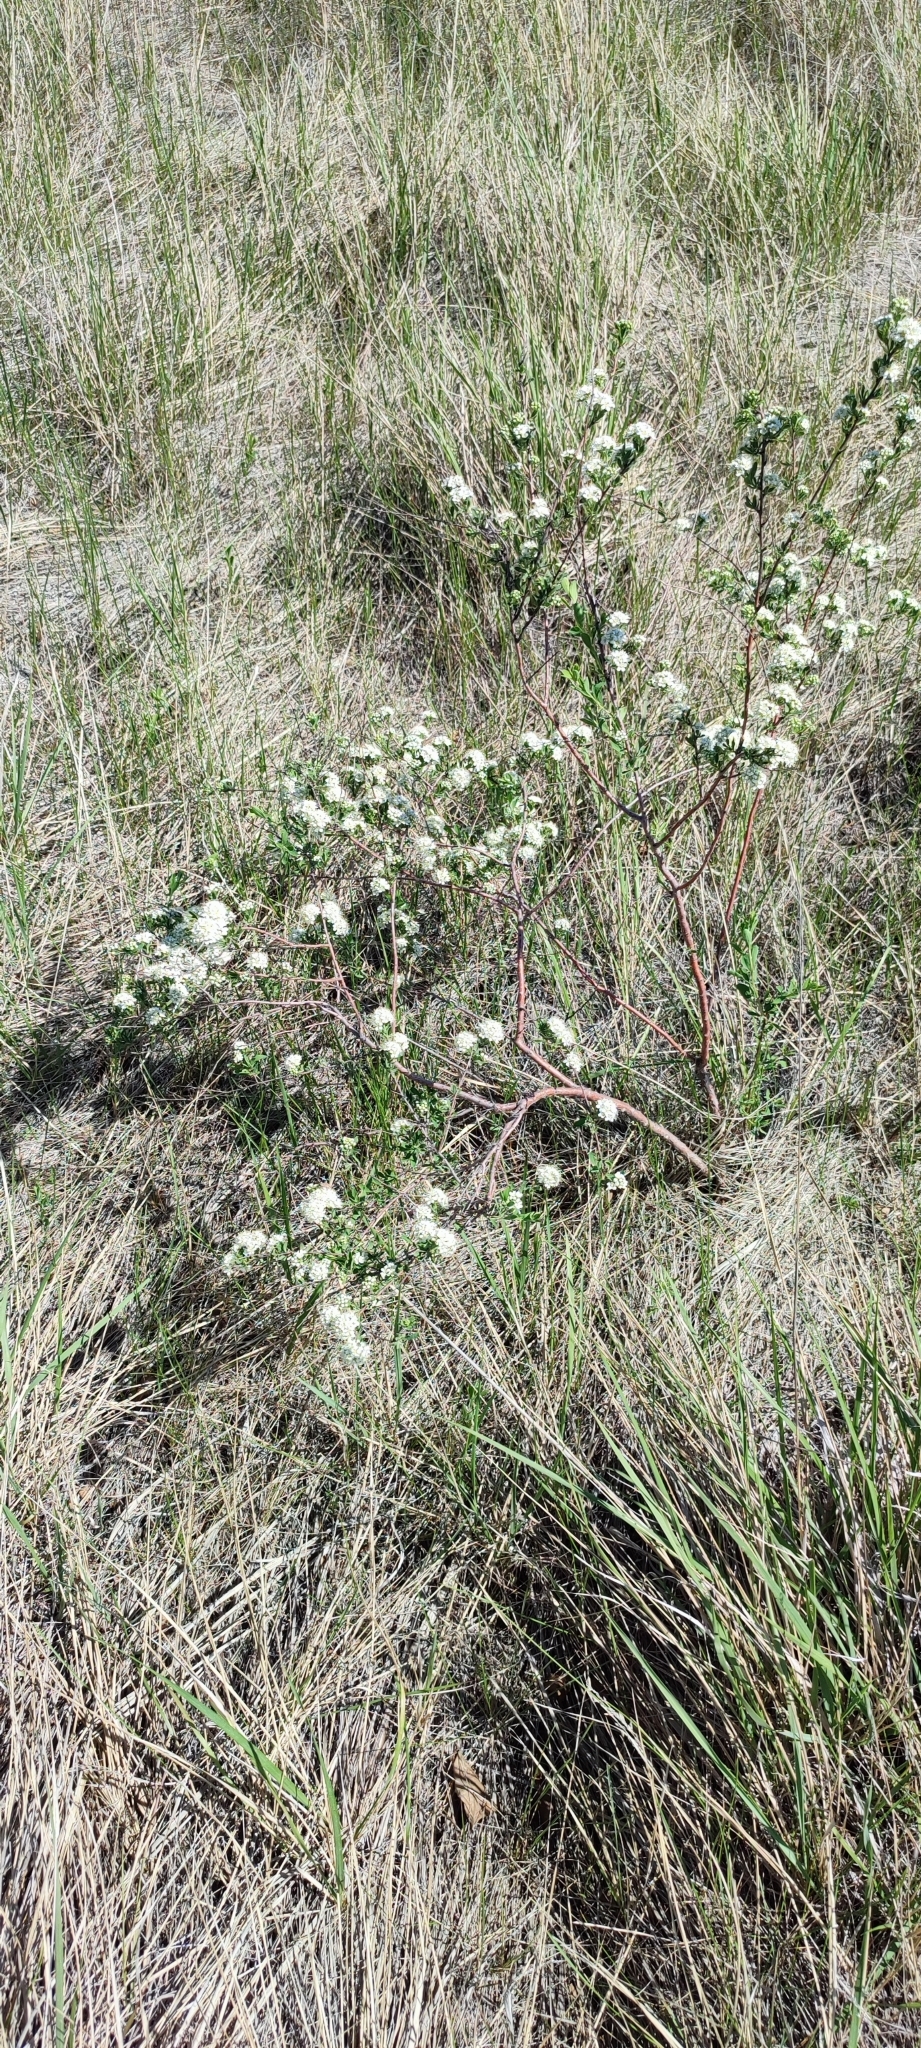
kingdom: Plantae
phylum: Tracheophyta
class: Magnoliopsida
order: Rosales
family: Rosaceae
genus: Spiraea
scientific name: Spiraea crenata
